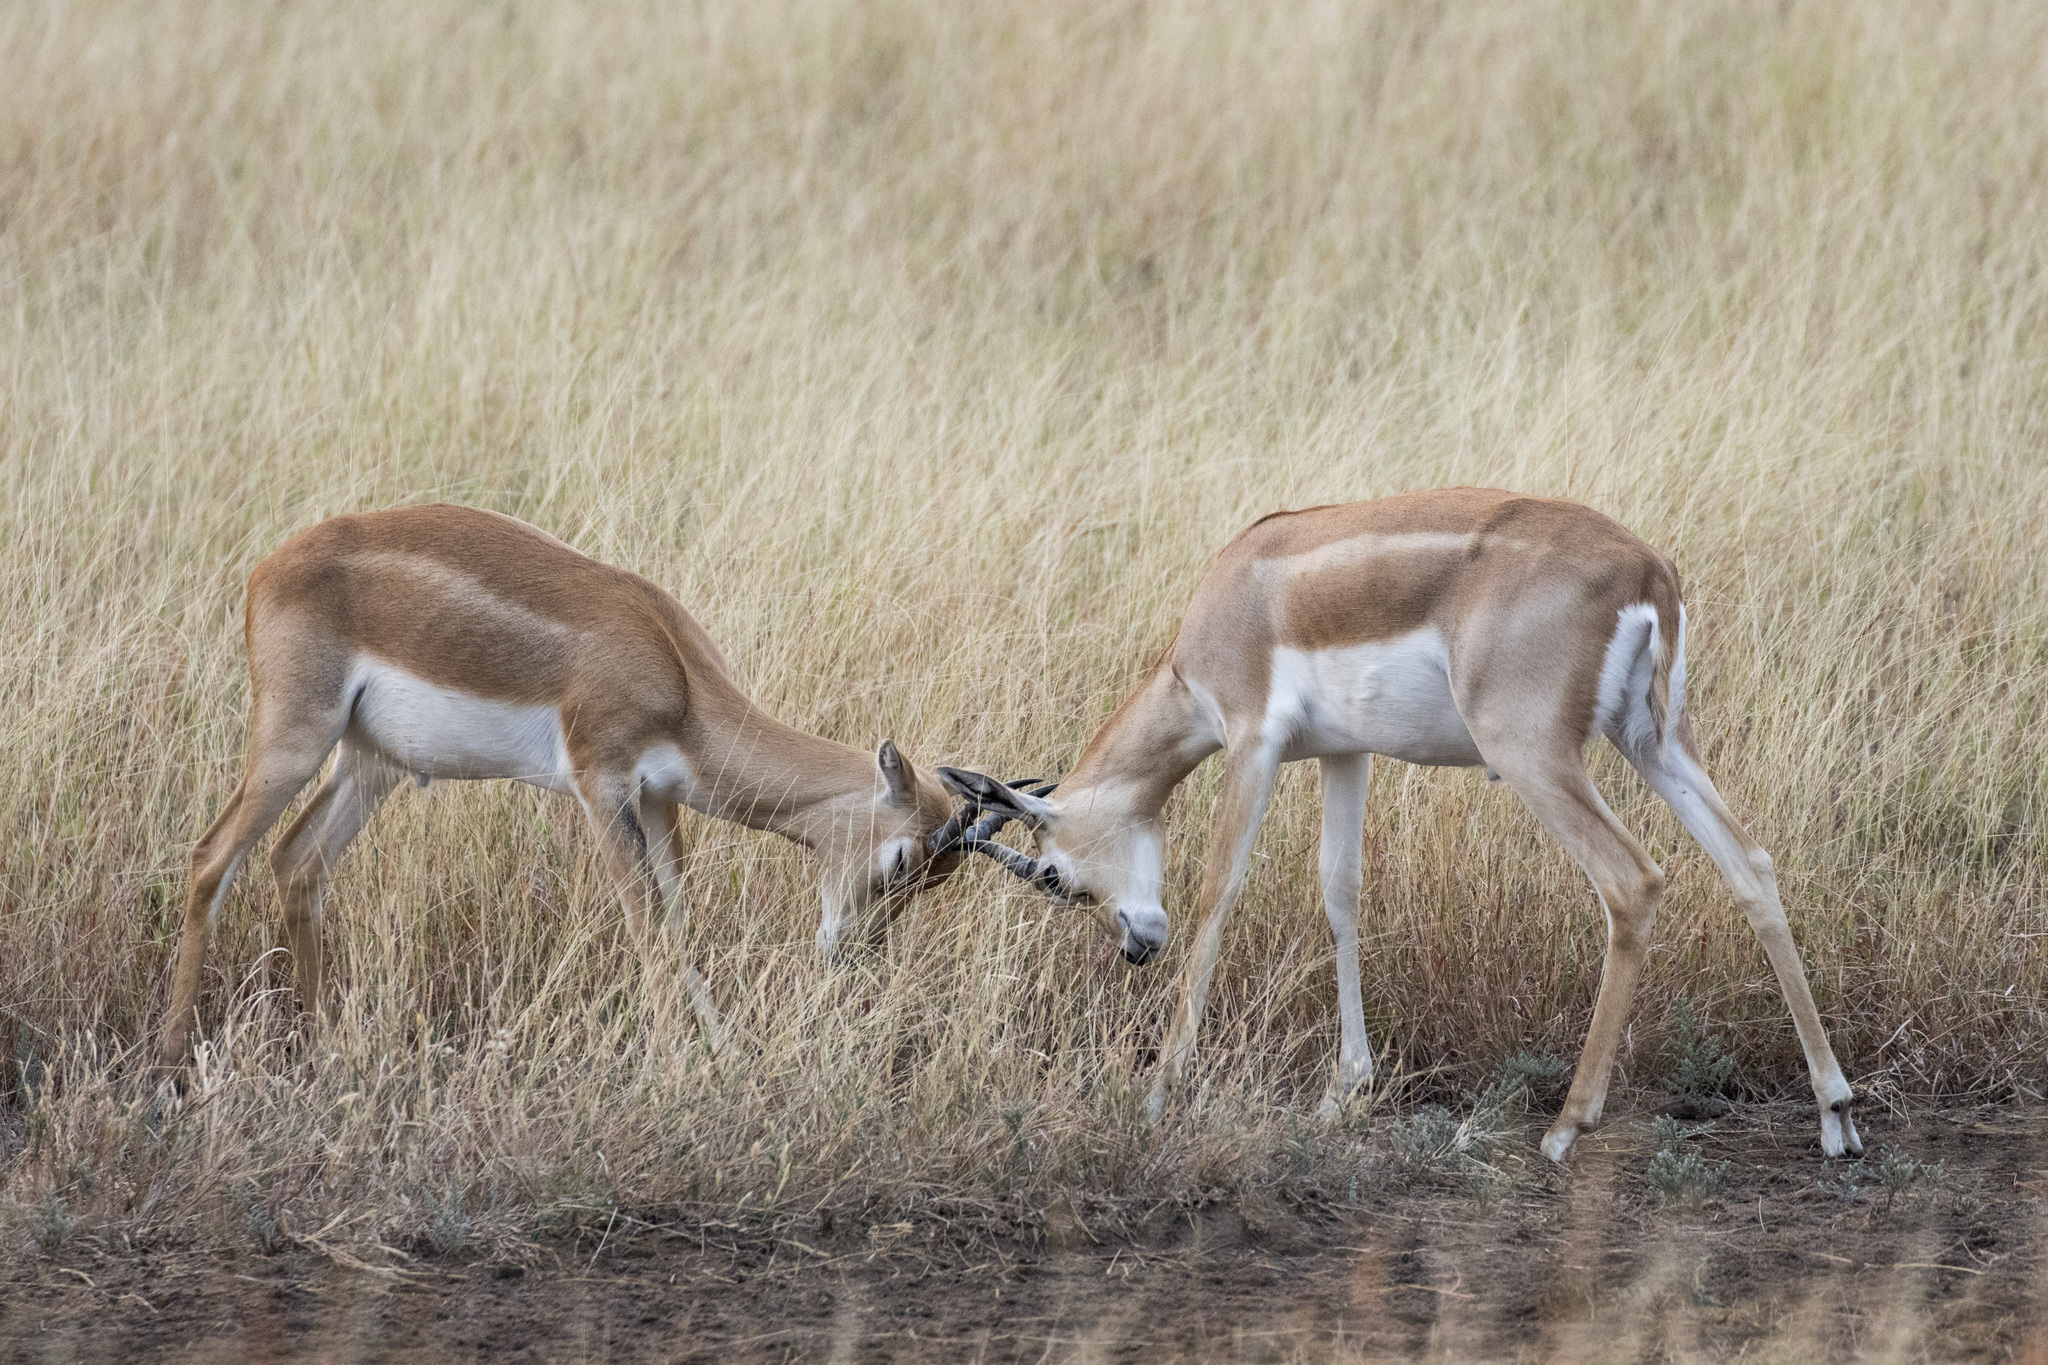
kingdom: Animalia
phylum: Chordata
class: Mammalia
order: Artiodactyla
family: Bovidae
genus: Antilope
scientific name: Antilope cervicapra
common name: Blackbuck
